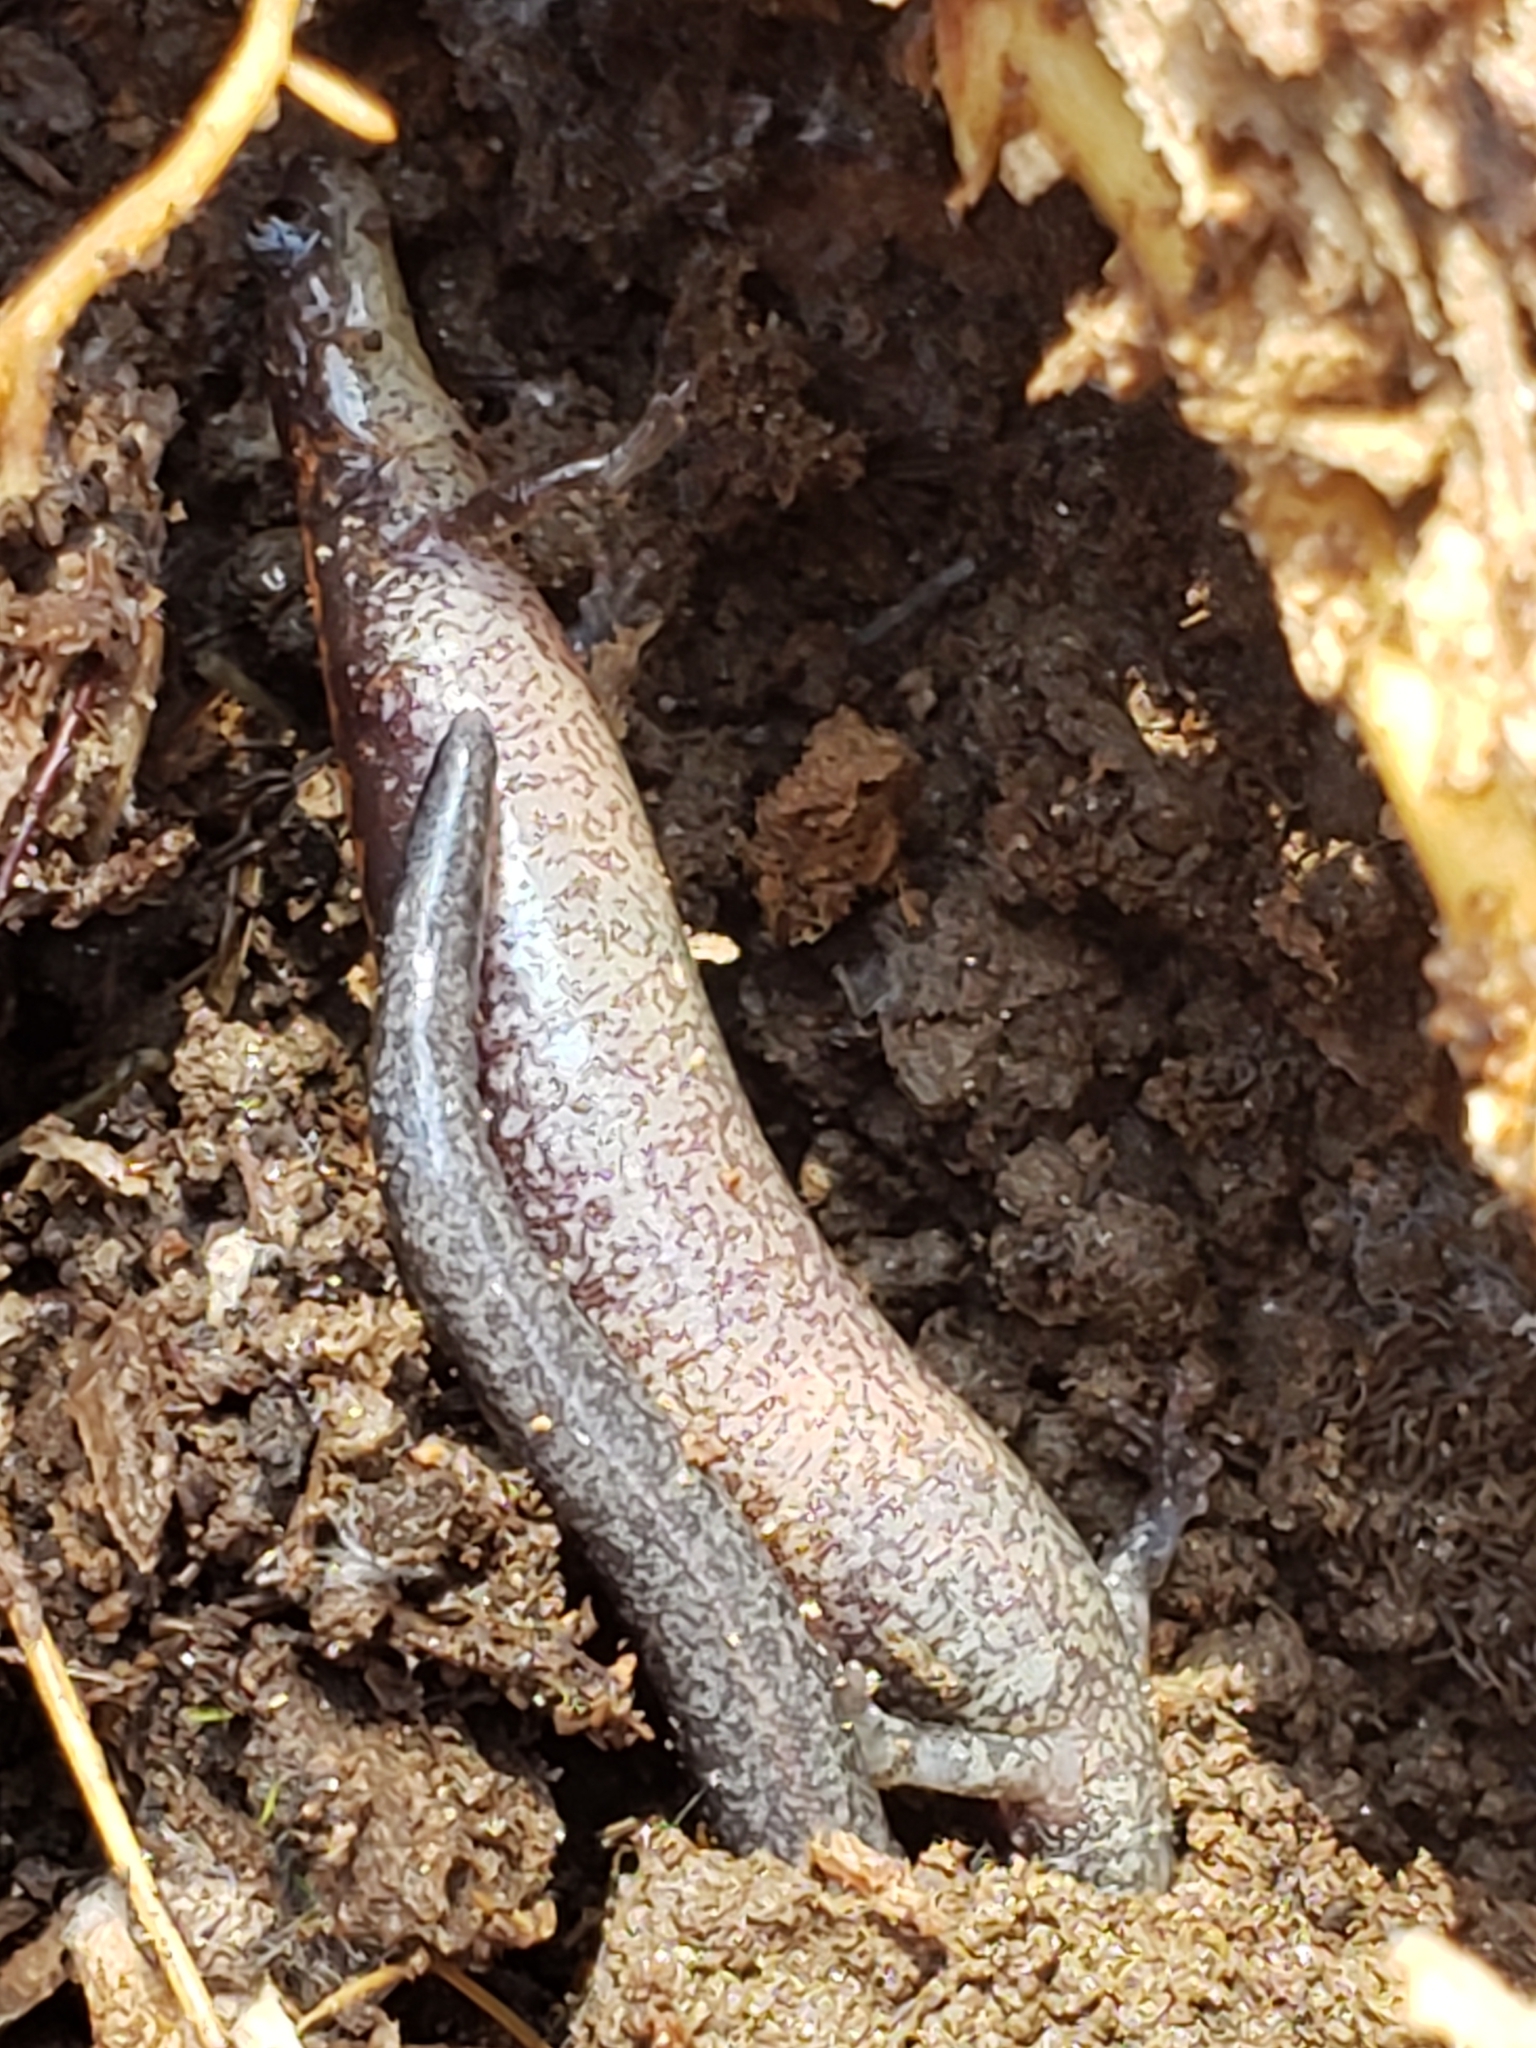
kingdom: Animalia
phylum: Chordata
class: Amphibia
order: Caudata
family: Plethodontidae
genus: Plethodon
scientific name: Plethodon cinereus
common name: Redback salamander
